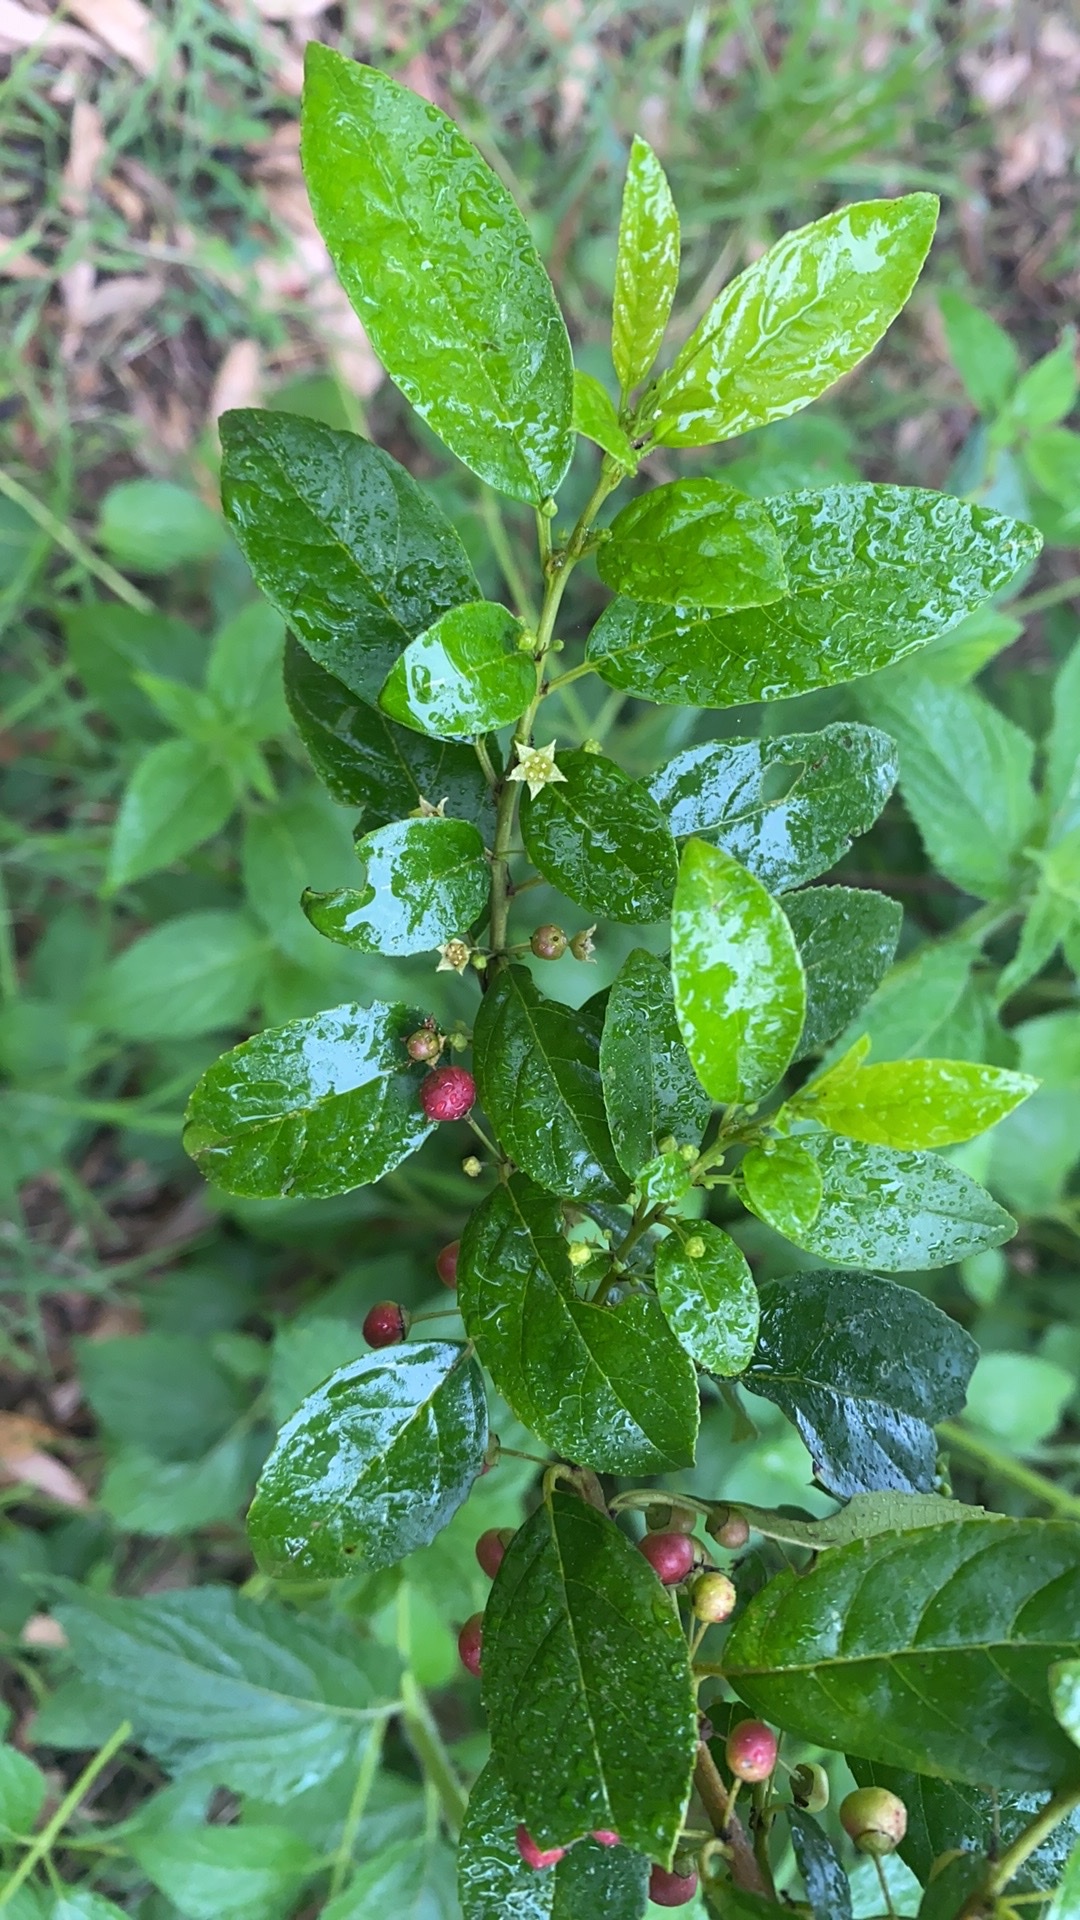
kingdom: Plantae
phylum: Tracheophyta
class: Magnoliopsida
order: Rosales
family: Rhamnaceae
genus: Rhamnus
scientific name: Rhamnus prinoides
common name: Dogwood
